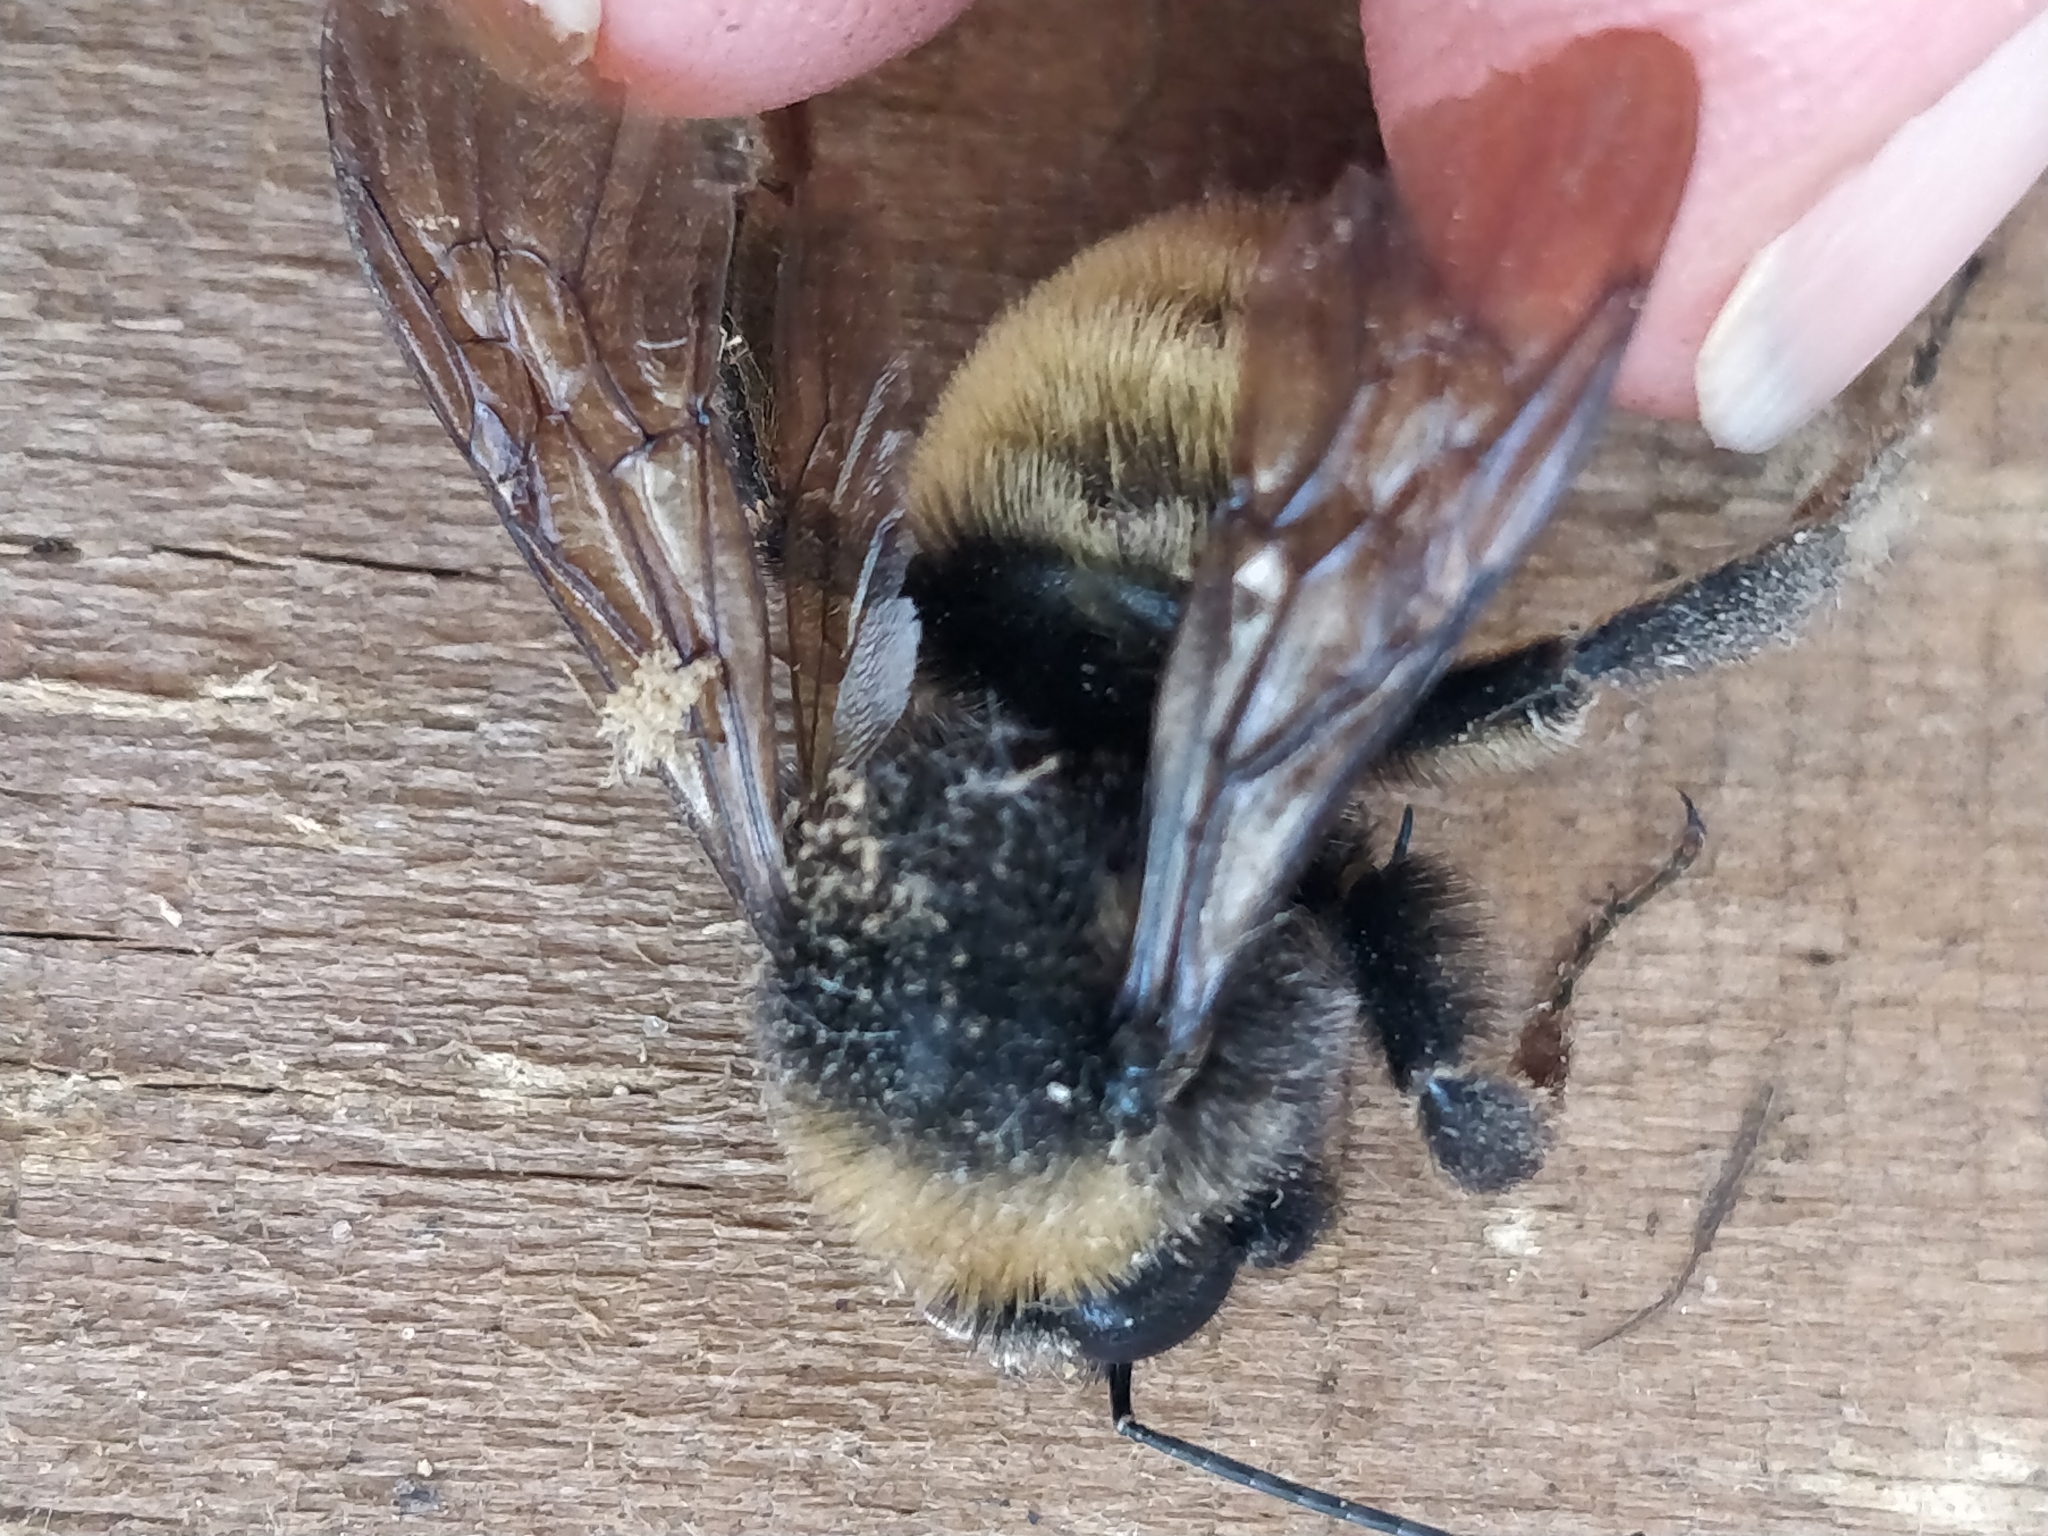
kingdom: Animalia
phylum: Arthropoda
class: Insecta
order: Hymenoptera
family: Apidae
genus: Bombus
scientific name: Bombus pensylvanicus
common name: Bumble bee
